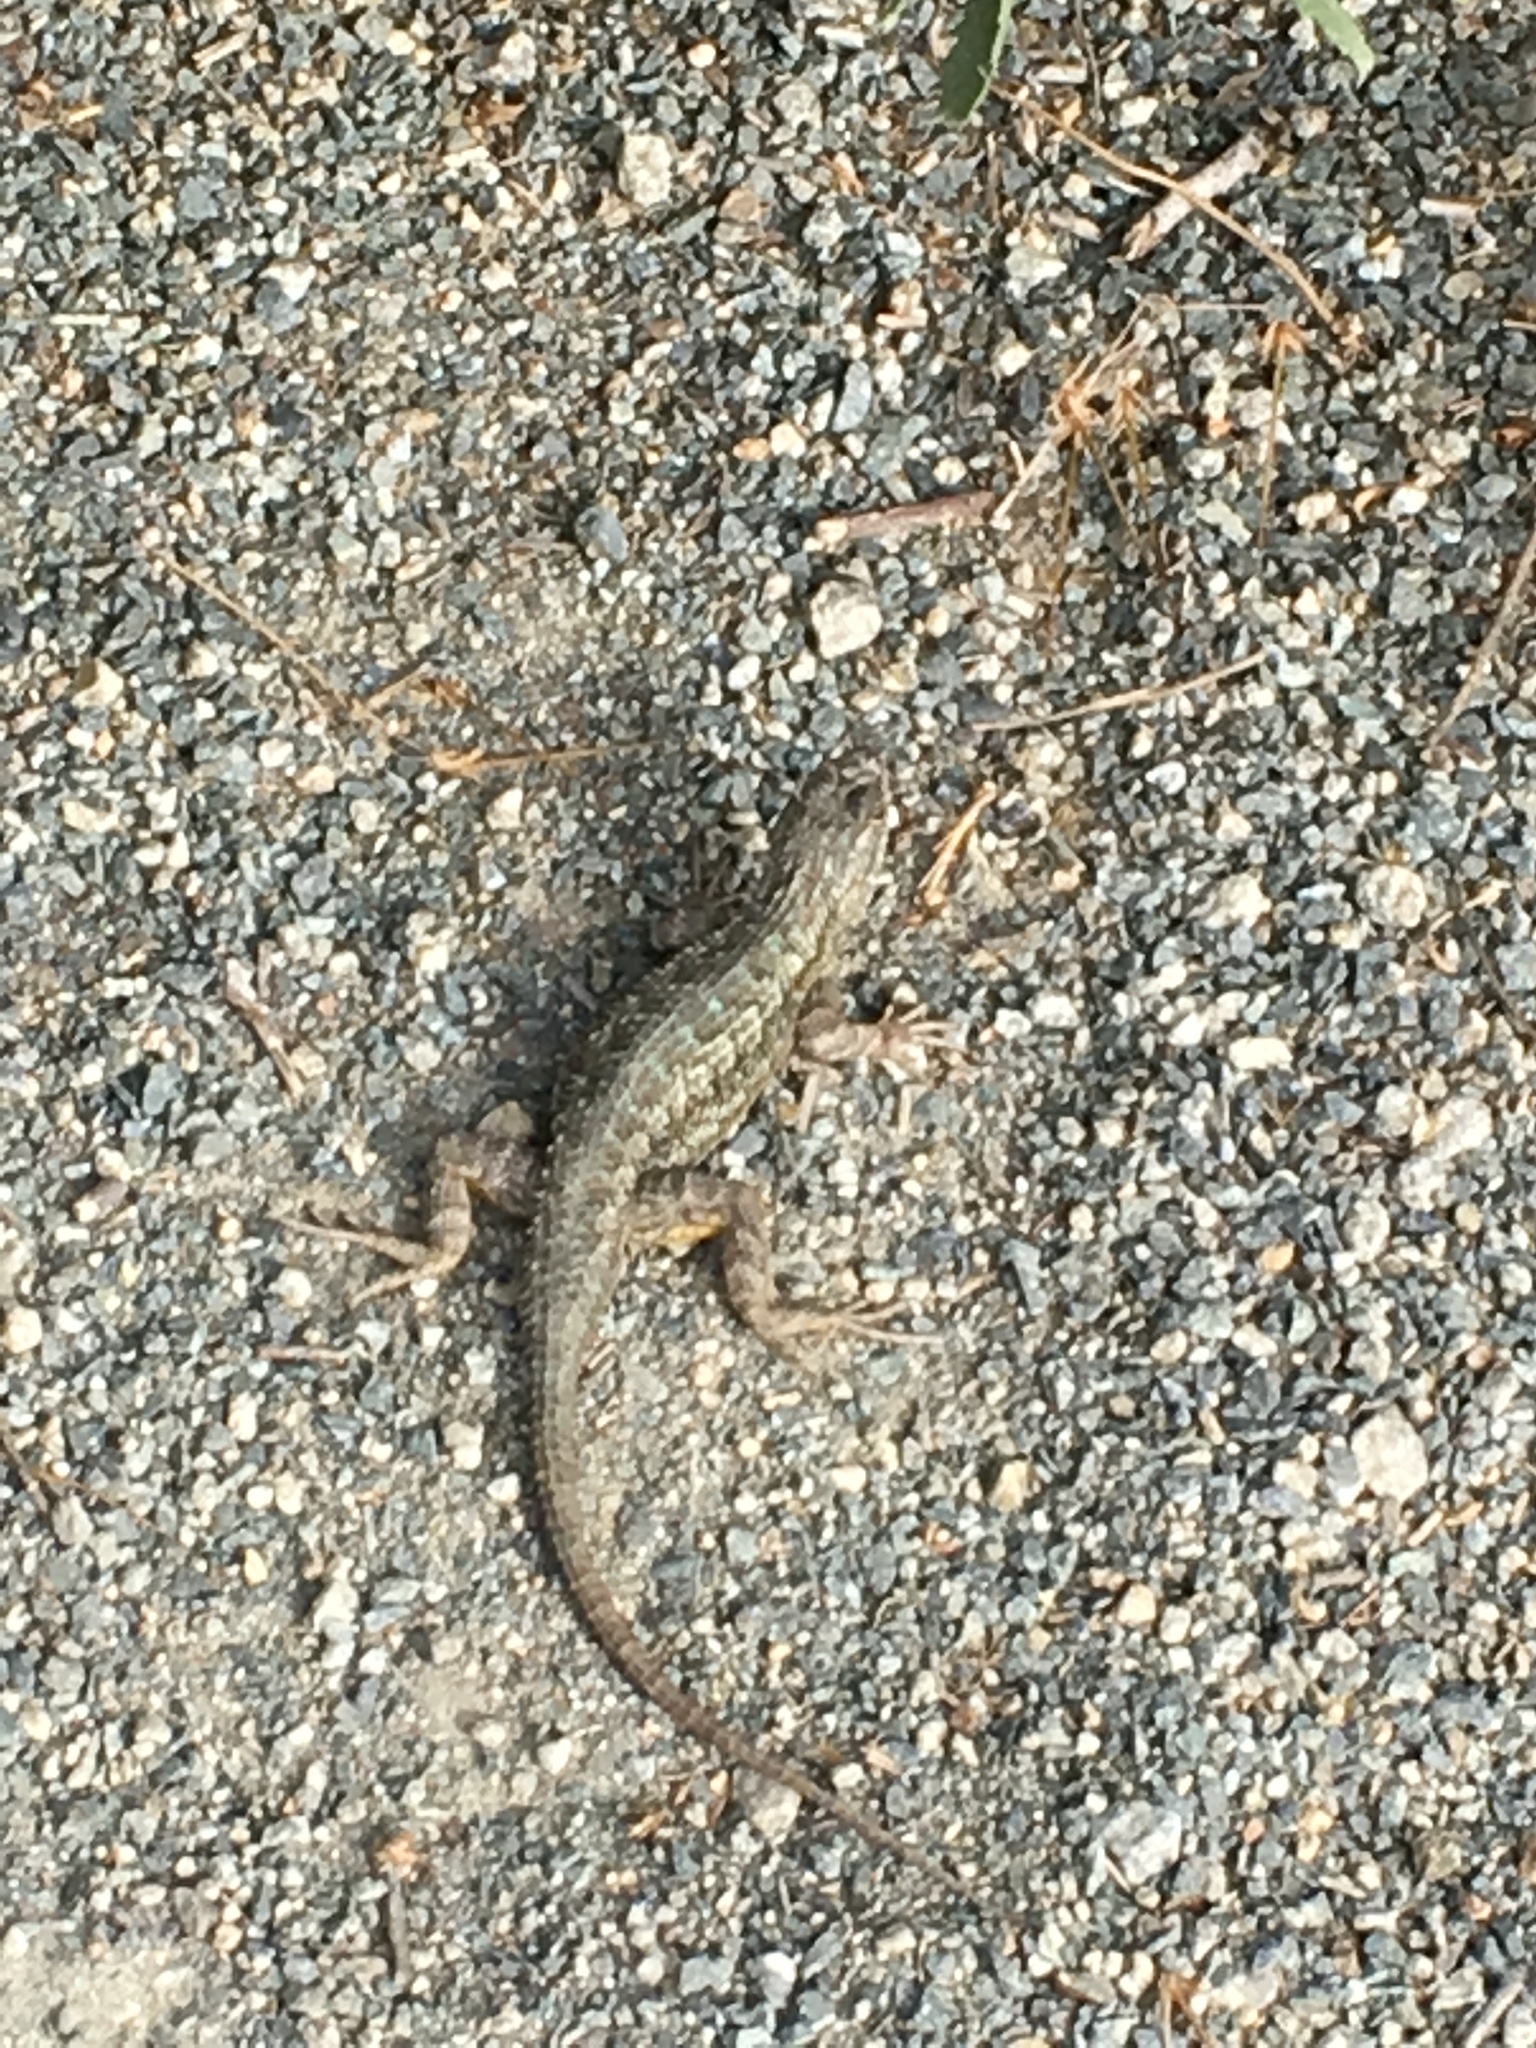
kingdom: Animalia
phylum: Chordata
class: Squamata
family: Phrynosomatidae
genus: Sceloporus
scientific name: Sceloporus occidentalis
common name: Western fence lizard
